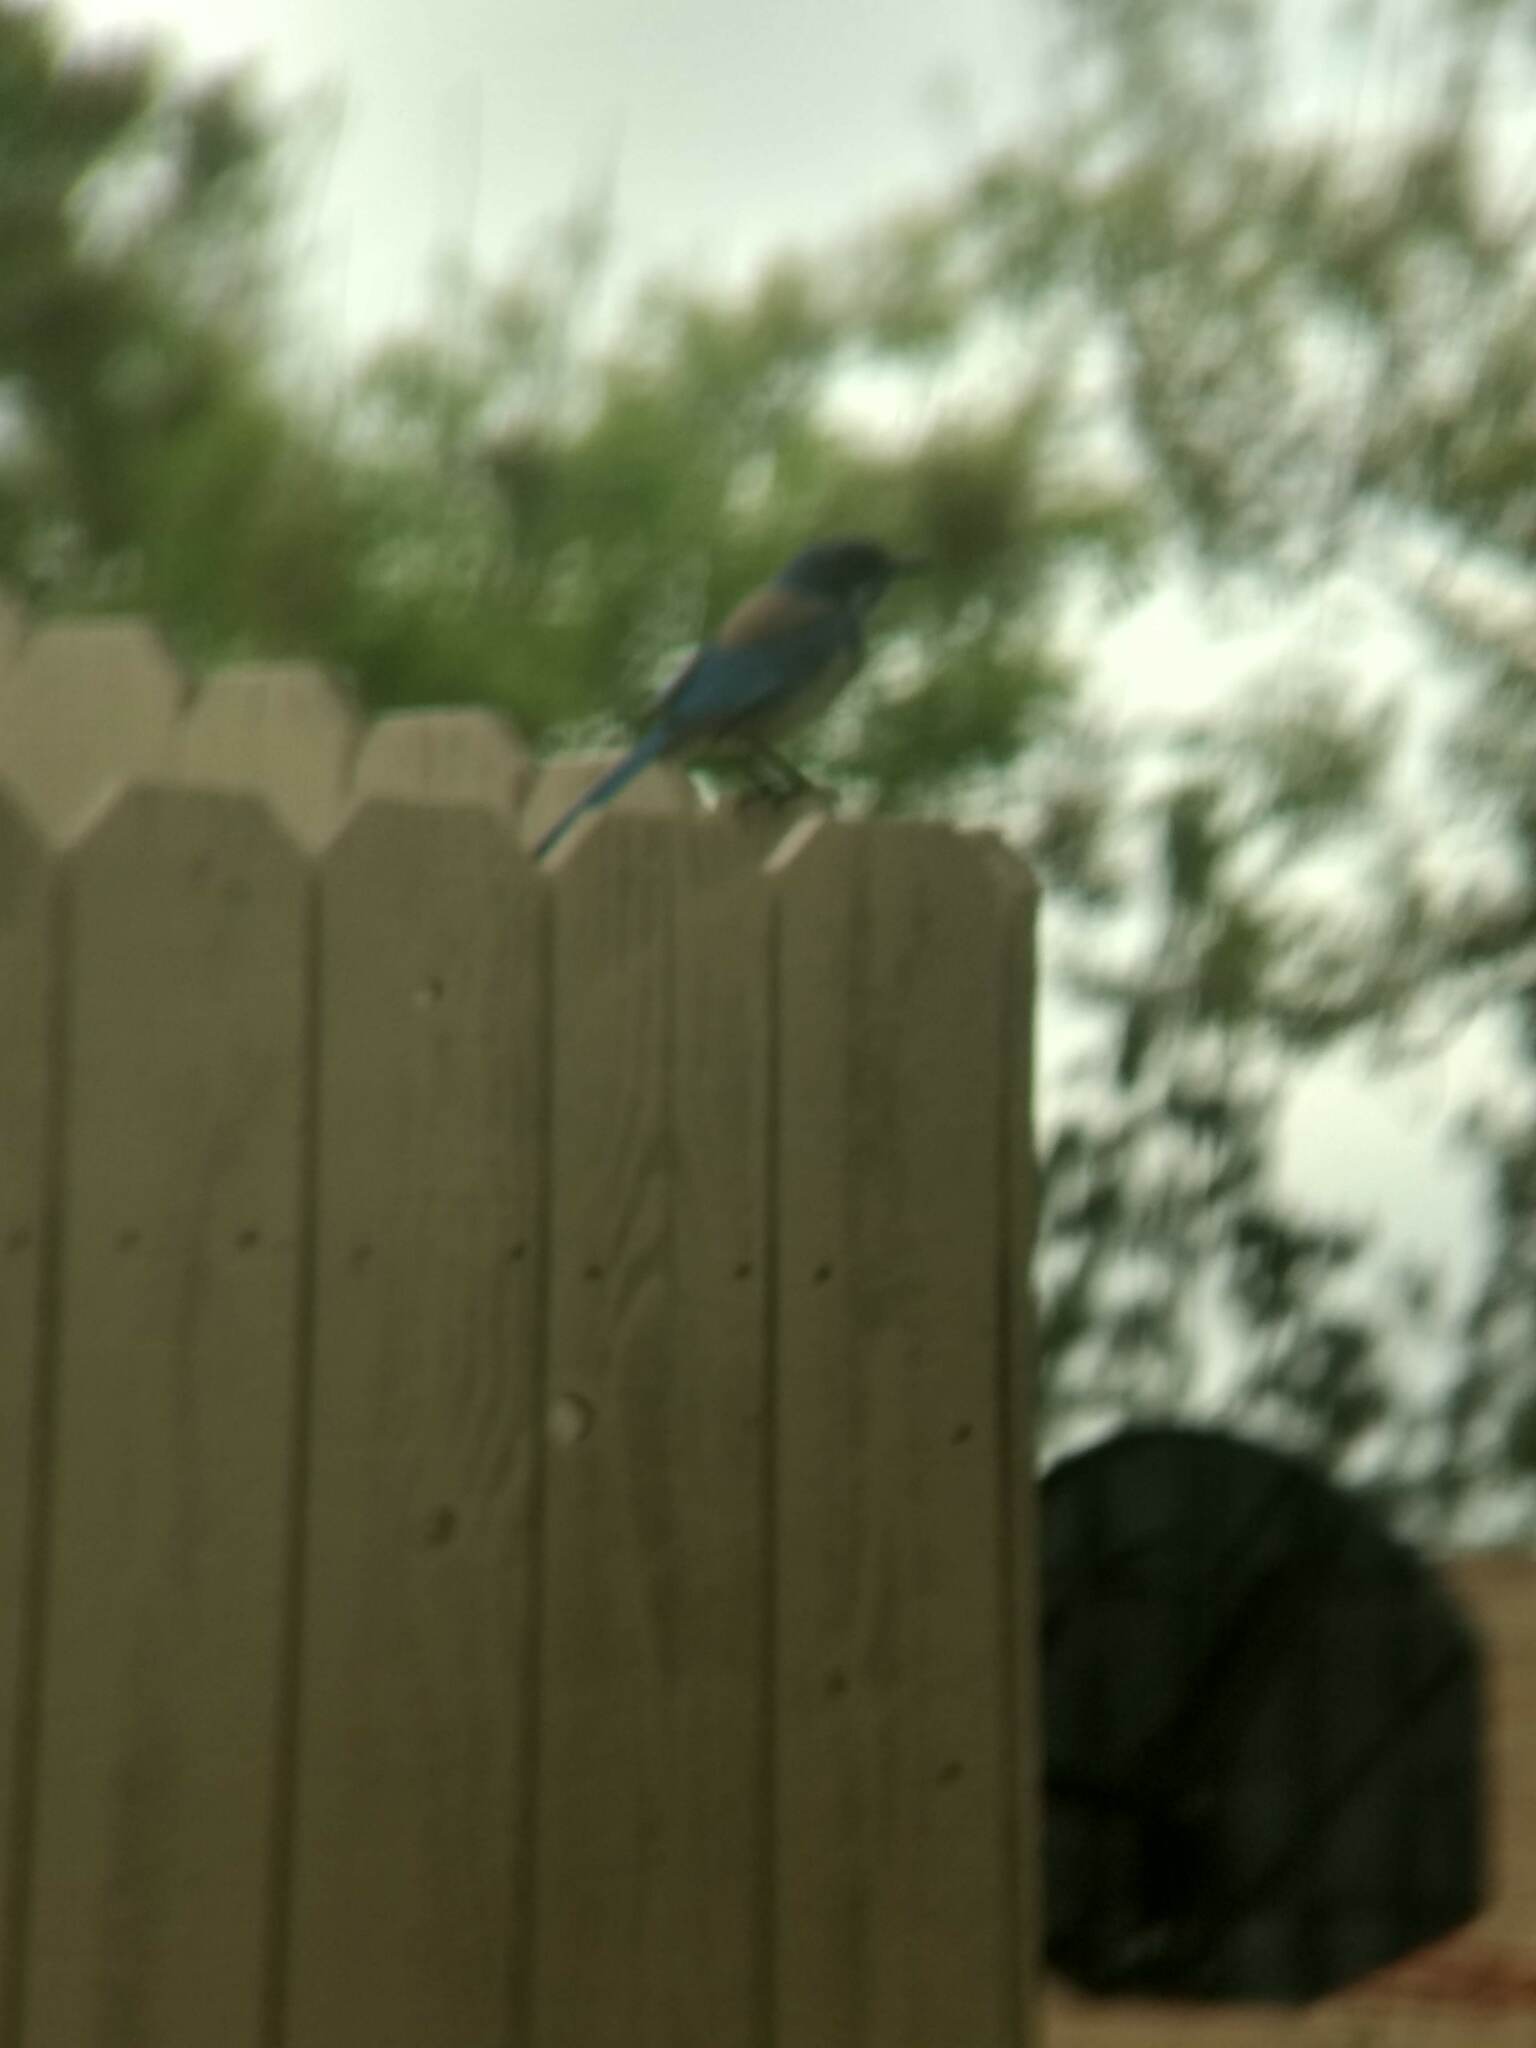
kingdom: Animalia
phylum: Chordata
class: Aves
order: Passeriformes
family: Corvidae
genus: Aphelocoma
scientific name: Aphelocoma californica
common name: California scrub-jay
